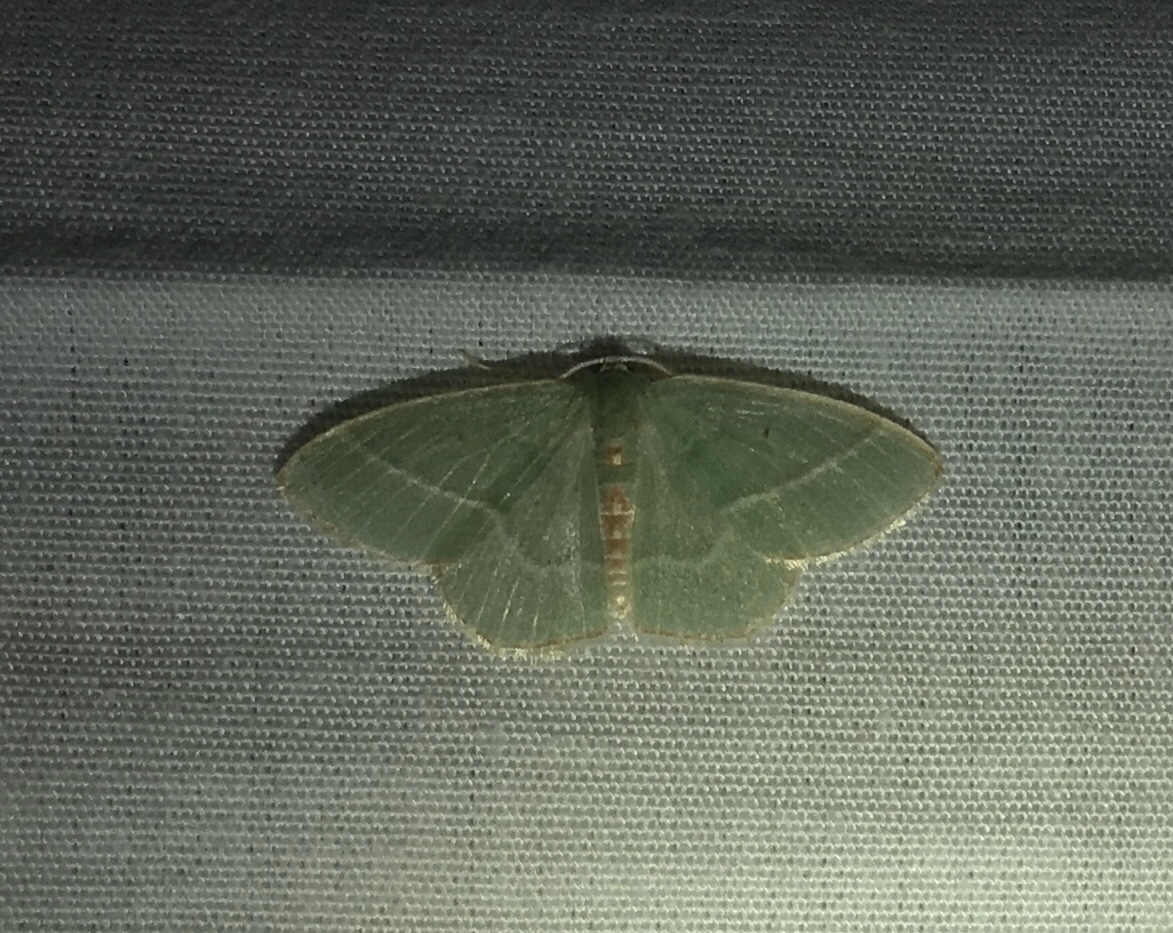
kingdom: Animalia
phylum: Arthropoda
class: Insecta
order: Lepidoptera
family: Geometridae
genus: Nemoria
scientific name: Nemoria bistriaria
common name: Red-fringed emerald
